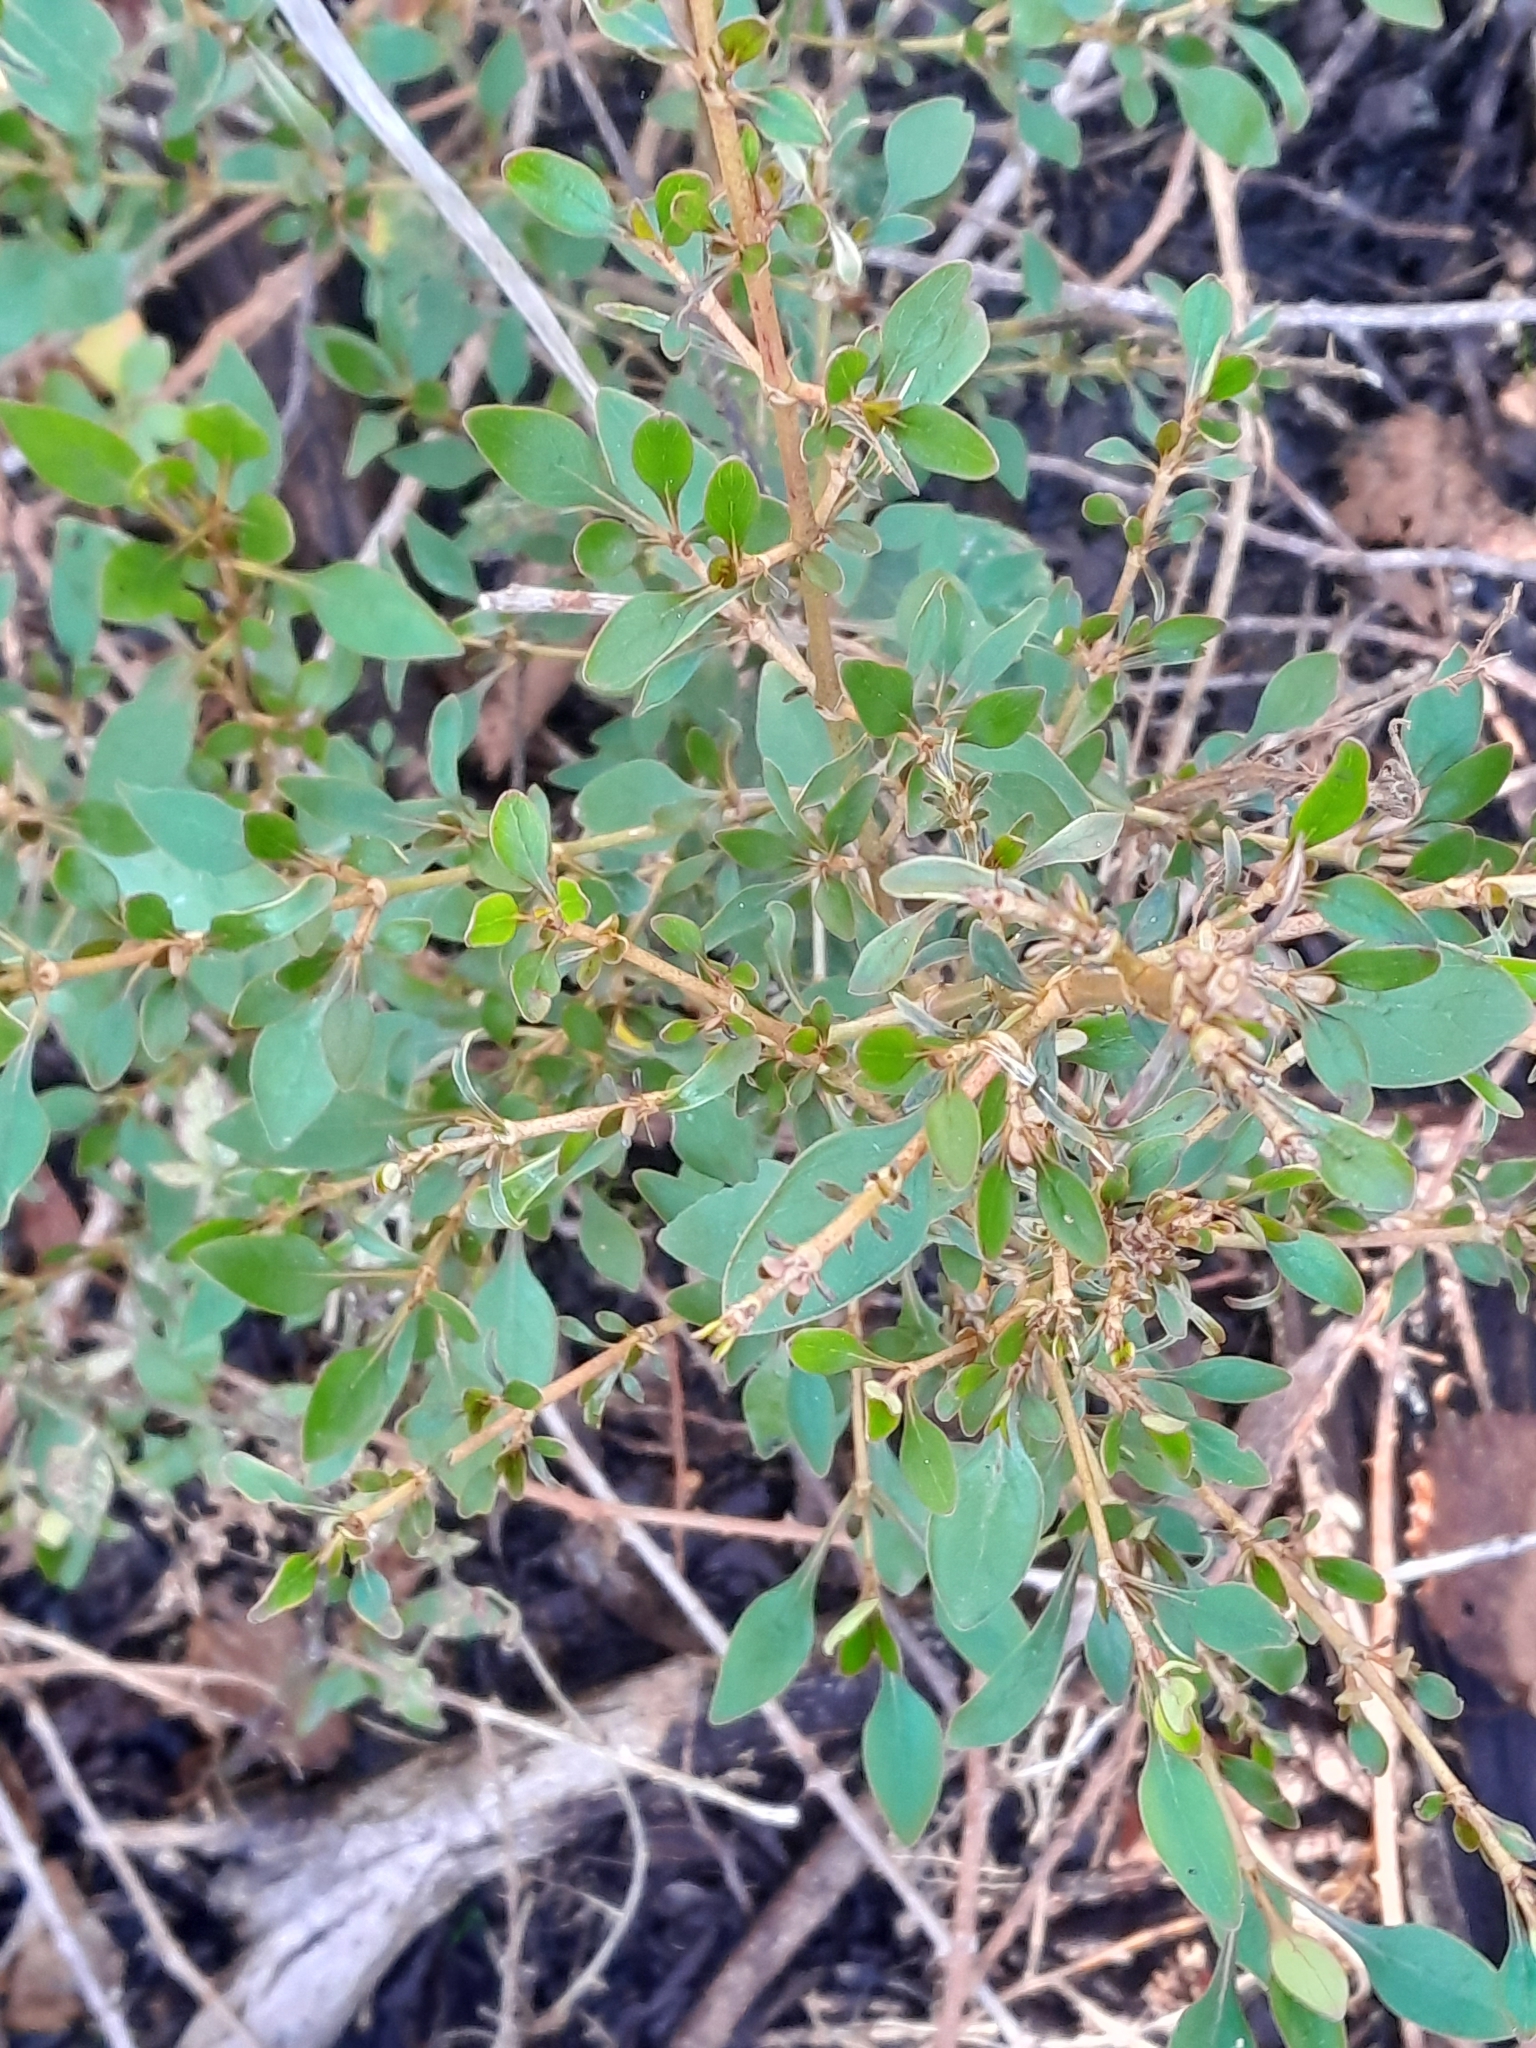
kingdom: Plantae
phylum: Tracheophyta
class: Magnoliopsida
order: Gentianales
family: Rubiaceae
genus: Coprosma
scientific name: Coprosma cunninghamii
